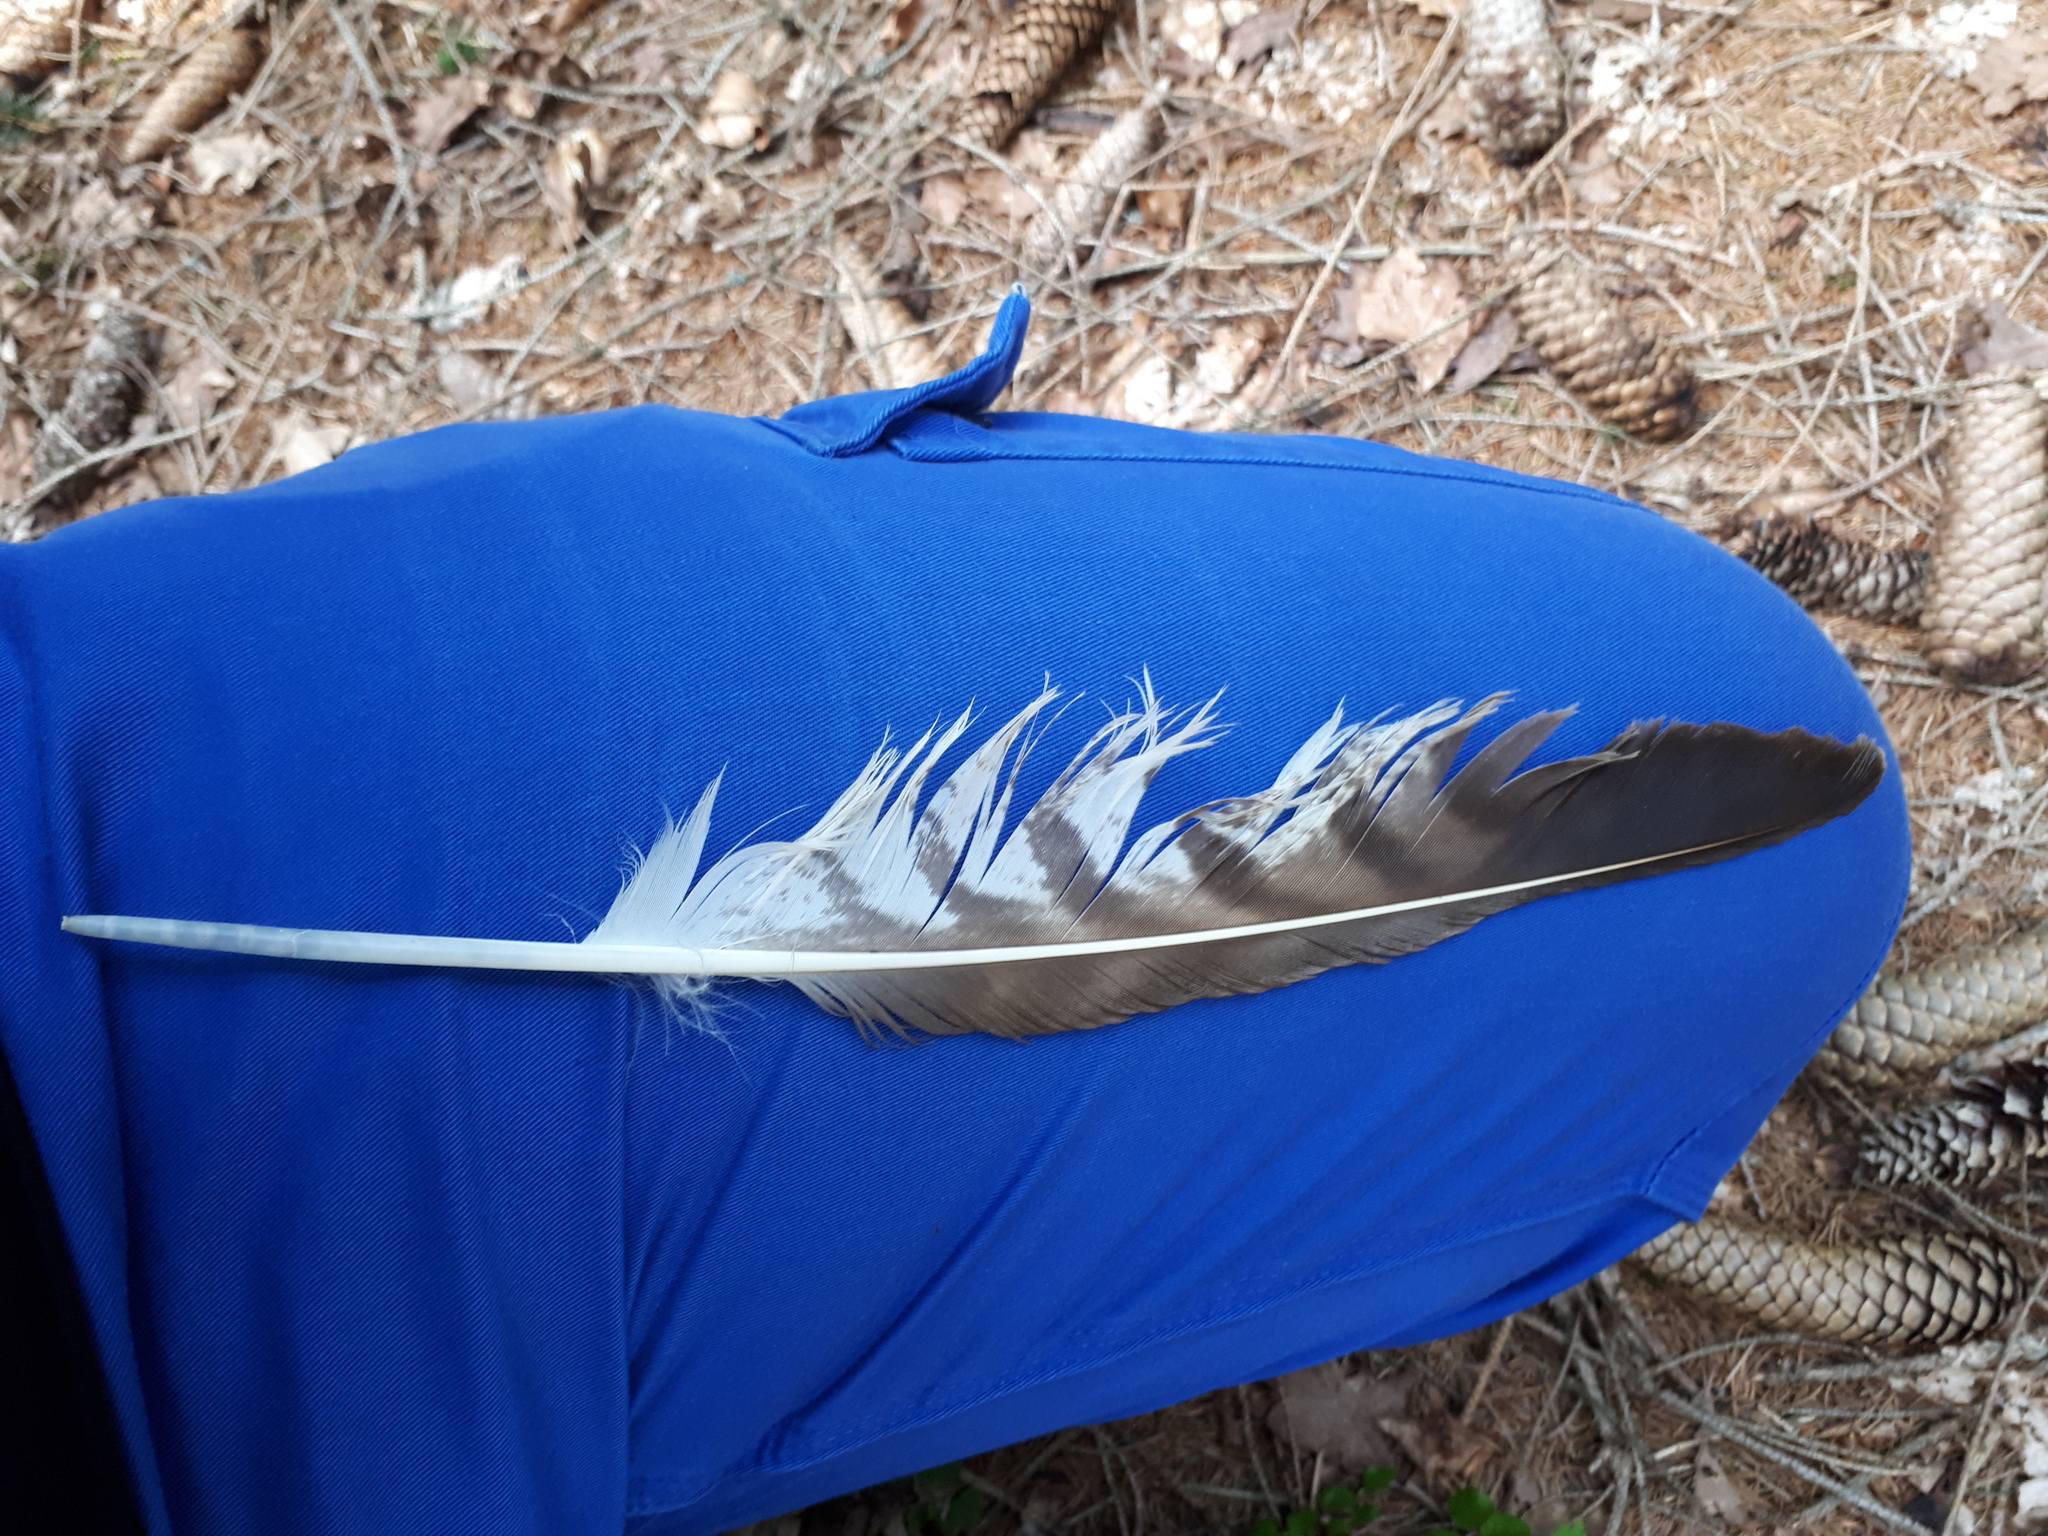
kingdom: Animalia
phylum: Chordata
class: Aves
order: Accipitriformes
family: Accipitridae
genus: Buteo
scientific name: Buteo buteo
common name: Common buzzard
